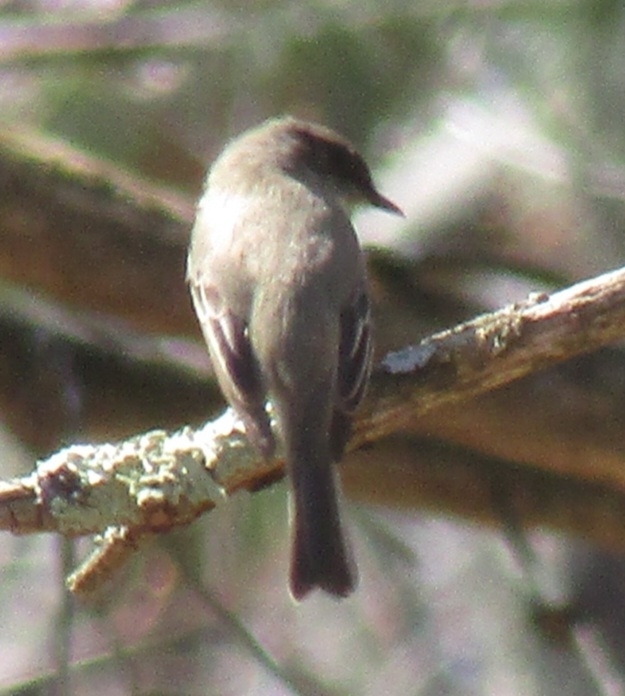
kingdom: Animalia
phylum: Chordata
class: Aves
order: Passeriformes
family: Tyrannidae
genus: Sayornis
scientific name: Sayornis phoebe
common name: Eastern phoebe
